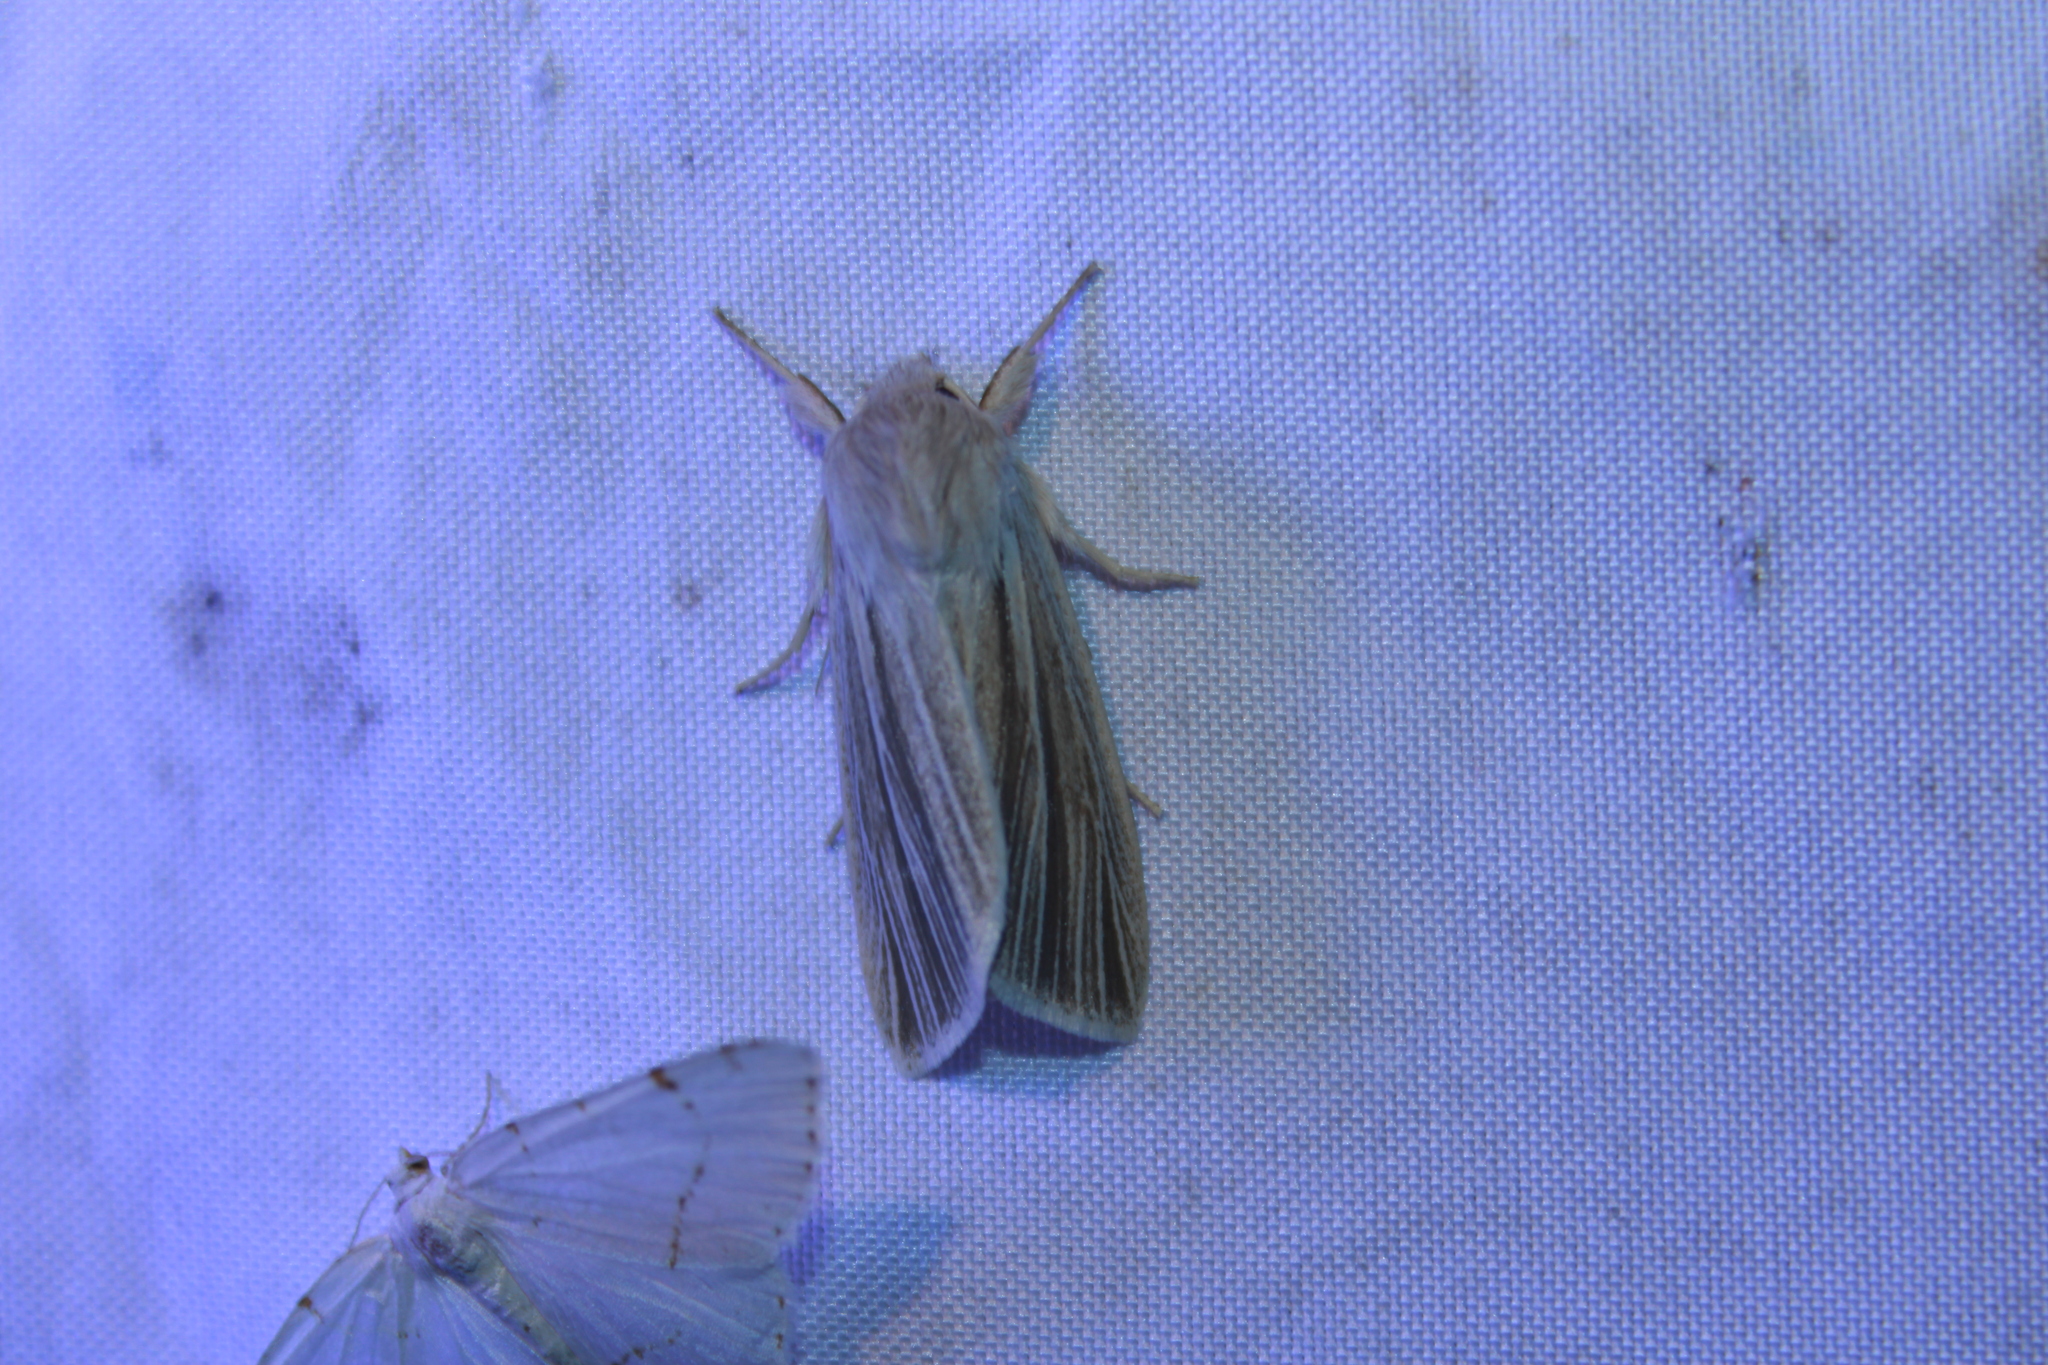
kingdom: Animalia
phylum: Arthropoda
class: Insecta
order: Lepidoptera
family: Noctuidae
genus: Acronicta
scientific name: Acronicta insularis
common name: Henry's marsh moth
